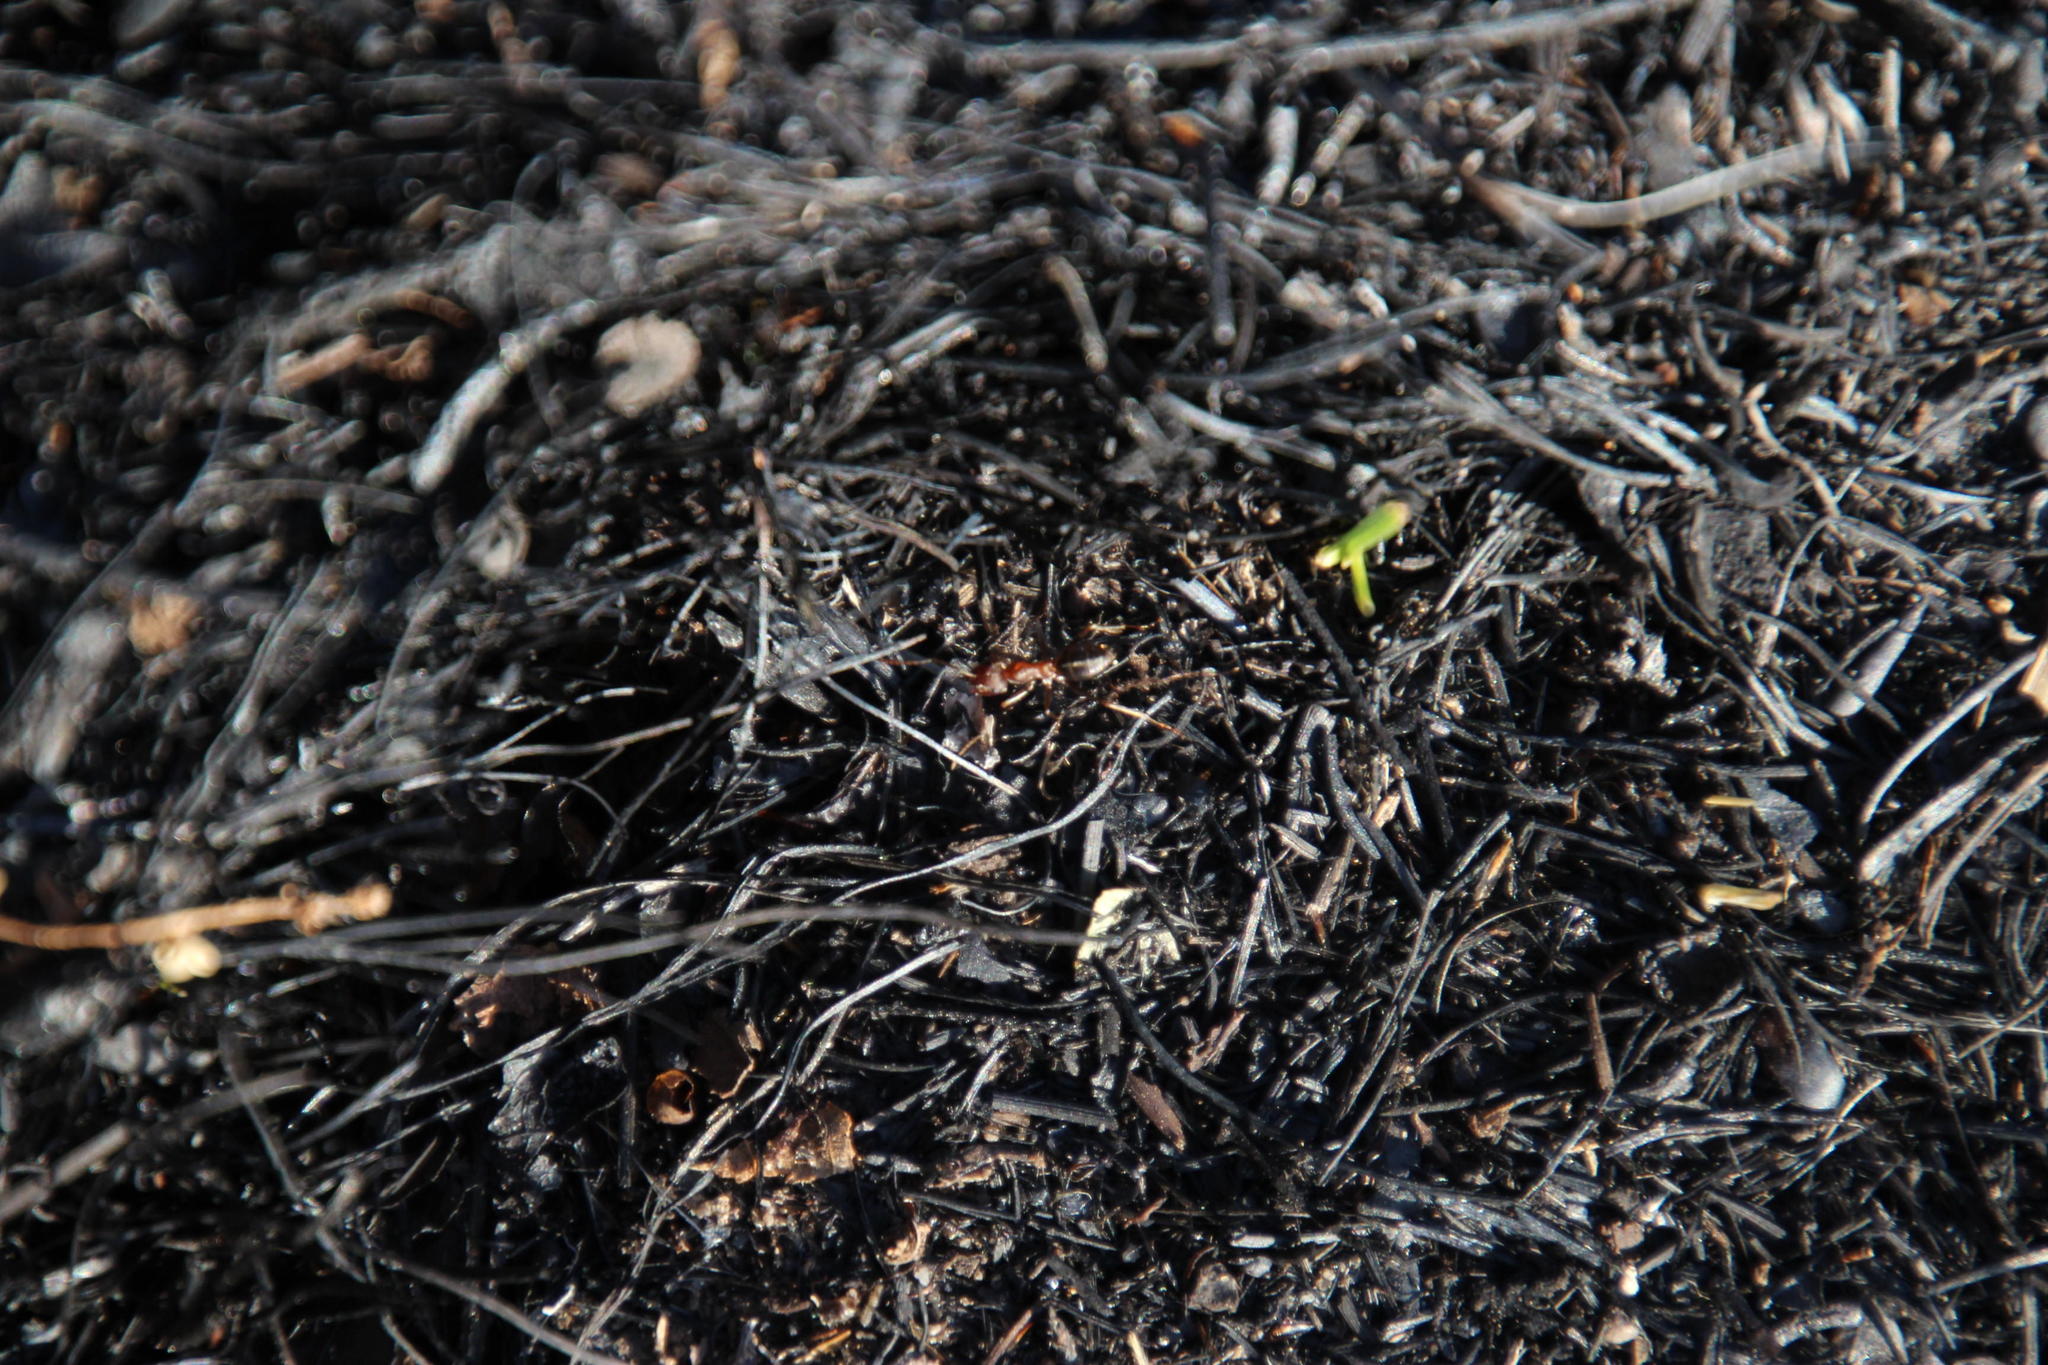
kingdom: Animalia
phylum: Arthropoda
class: Insecta
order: Hymenoptera
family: Formicidae
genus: Anoplolepis
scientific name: Anoplolepis custodiens
